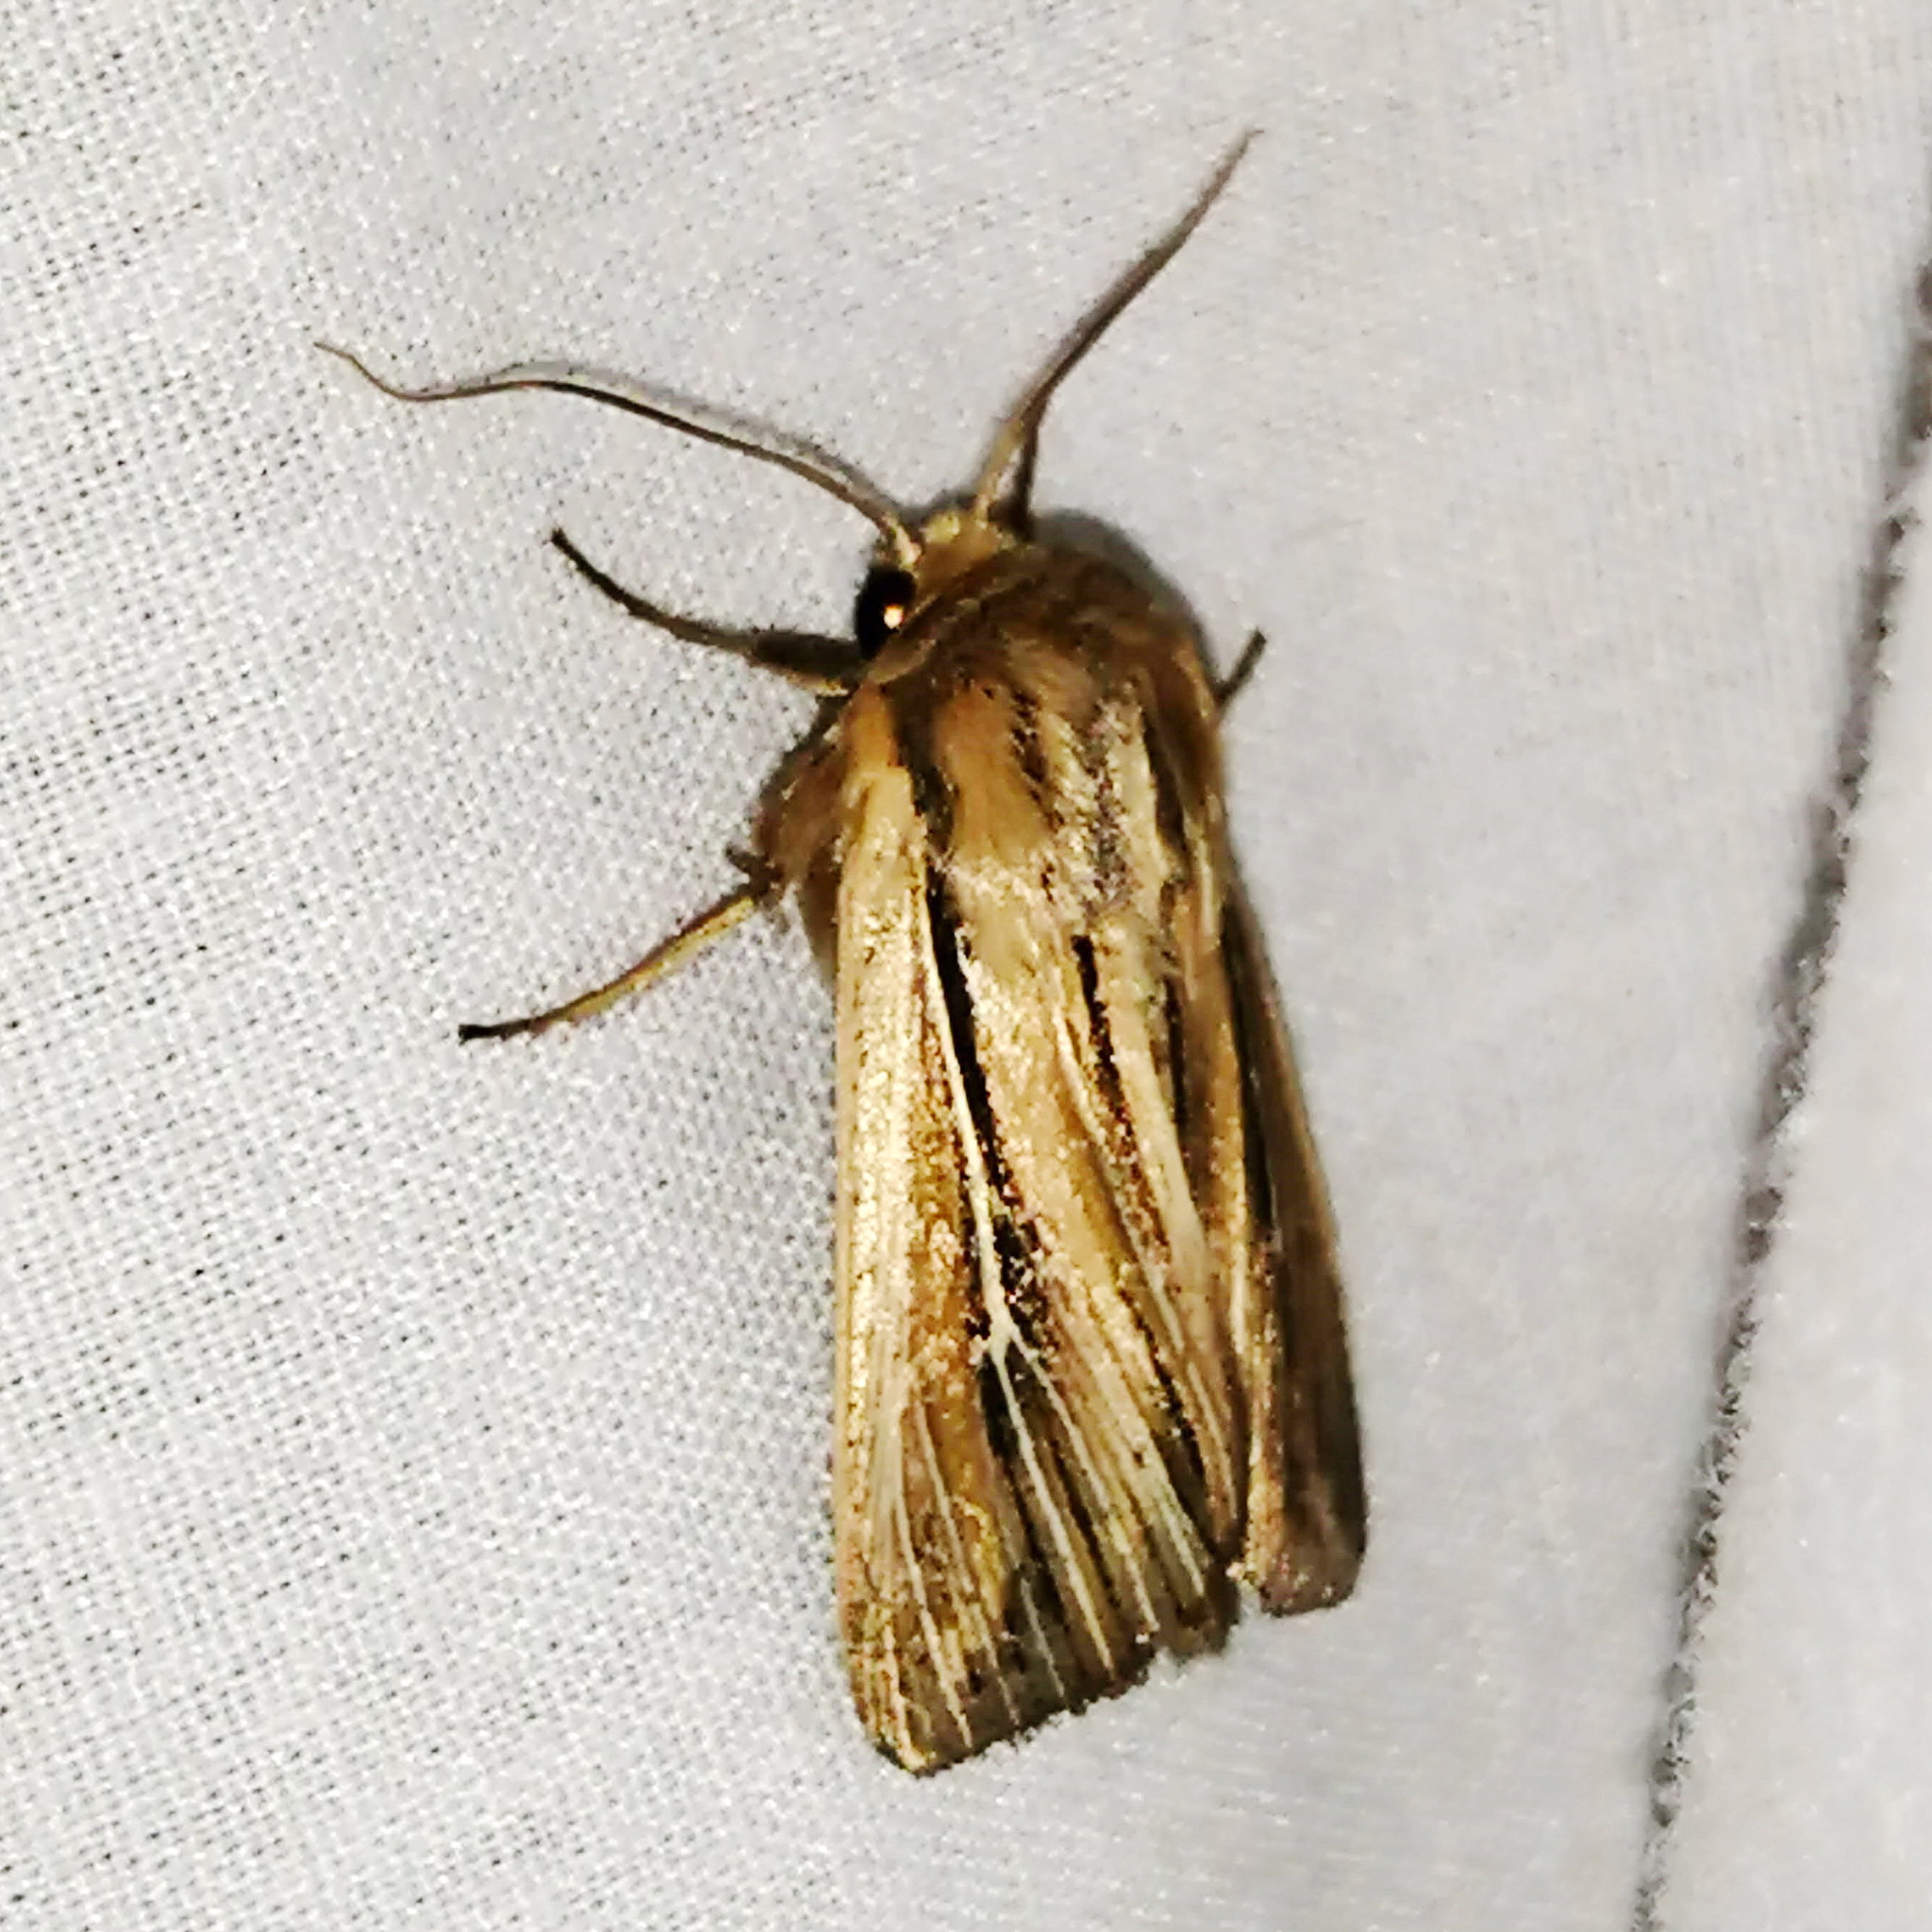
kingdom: Animalia
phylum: Arthropoda
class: Insecta
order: Lepidoptera
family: Noctuidae
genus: Leucania
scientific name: Leucania commoides
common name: Two-lined wainscot
